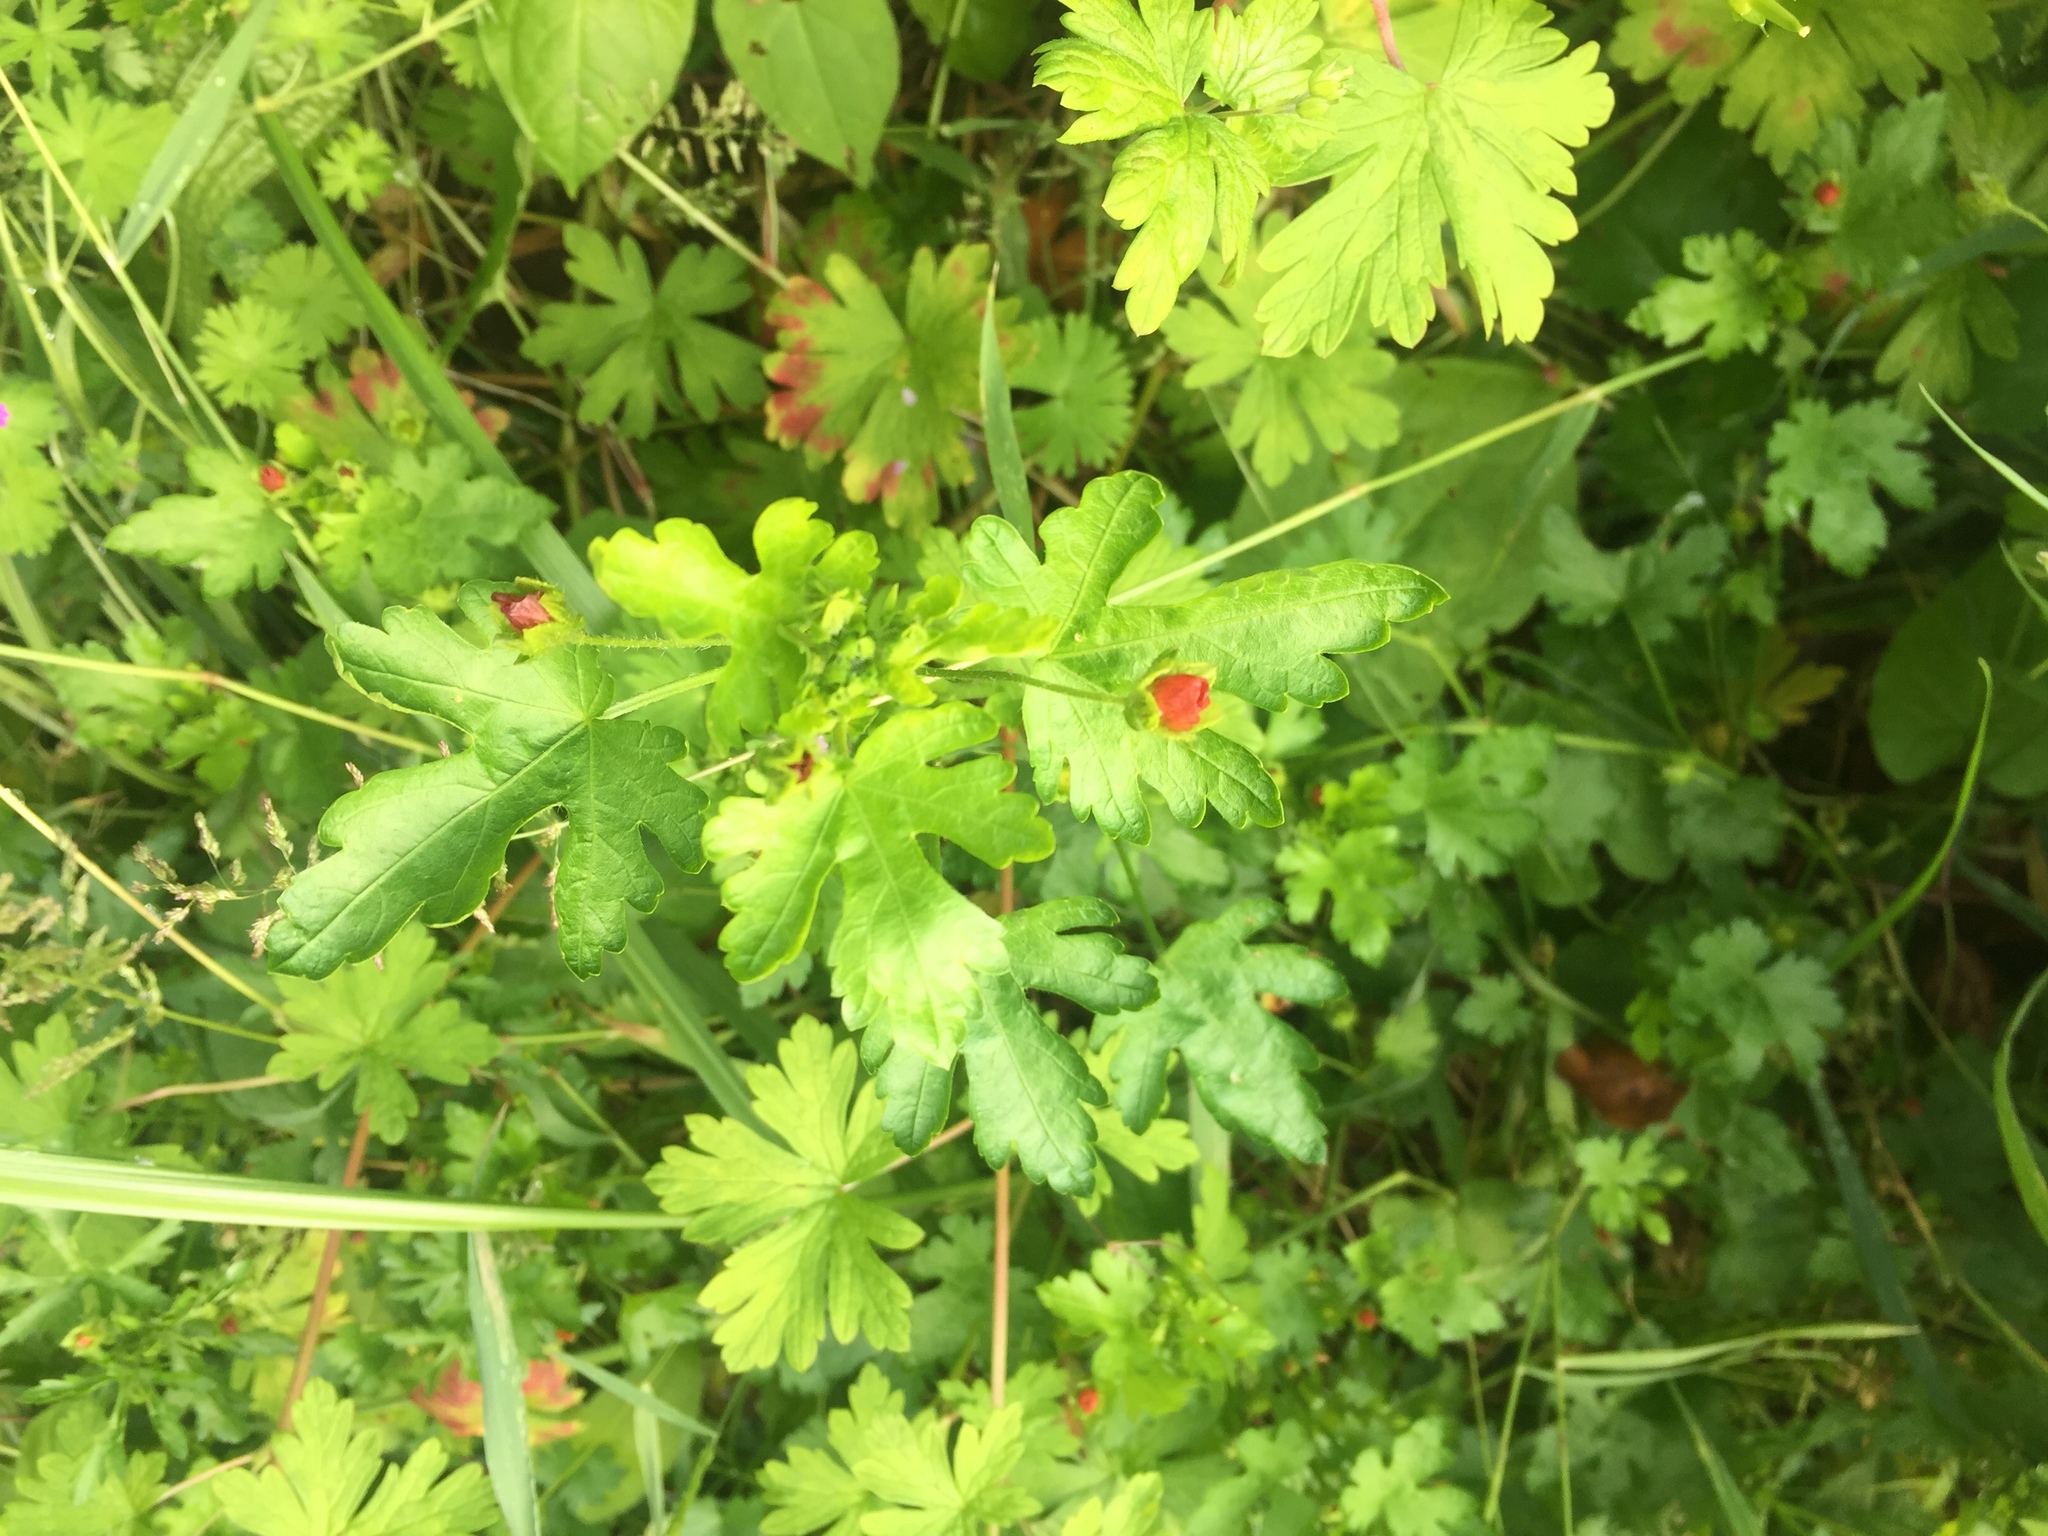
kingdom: Plantae
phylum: Tracheophyta
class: Magnoliopsida
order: Malvales
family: Malvaceae
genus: Modiola
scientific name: Modiola caroliniana
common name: Carolina bristlemallow
